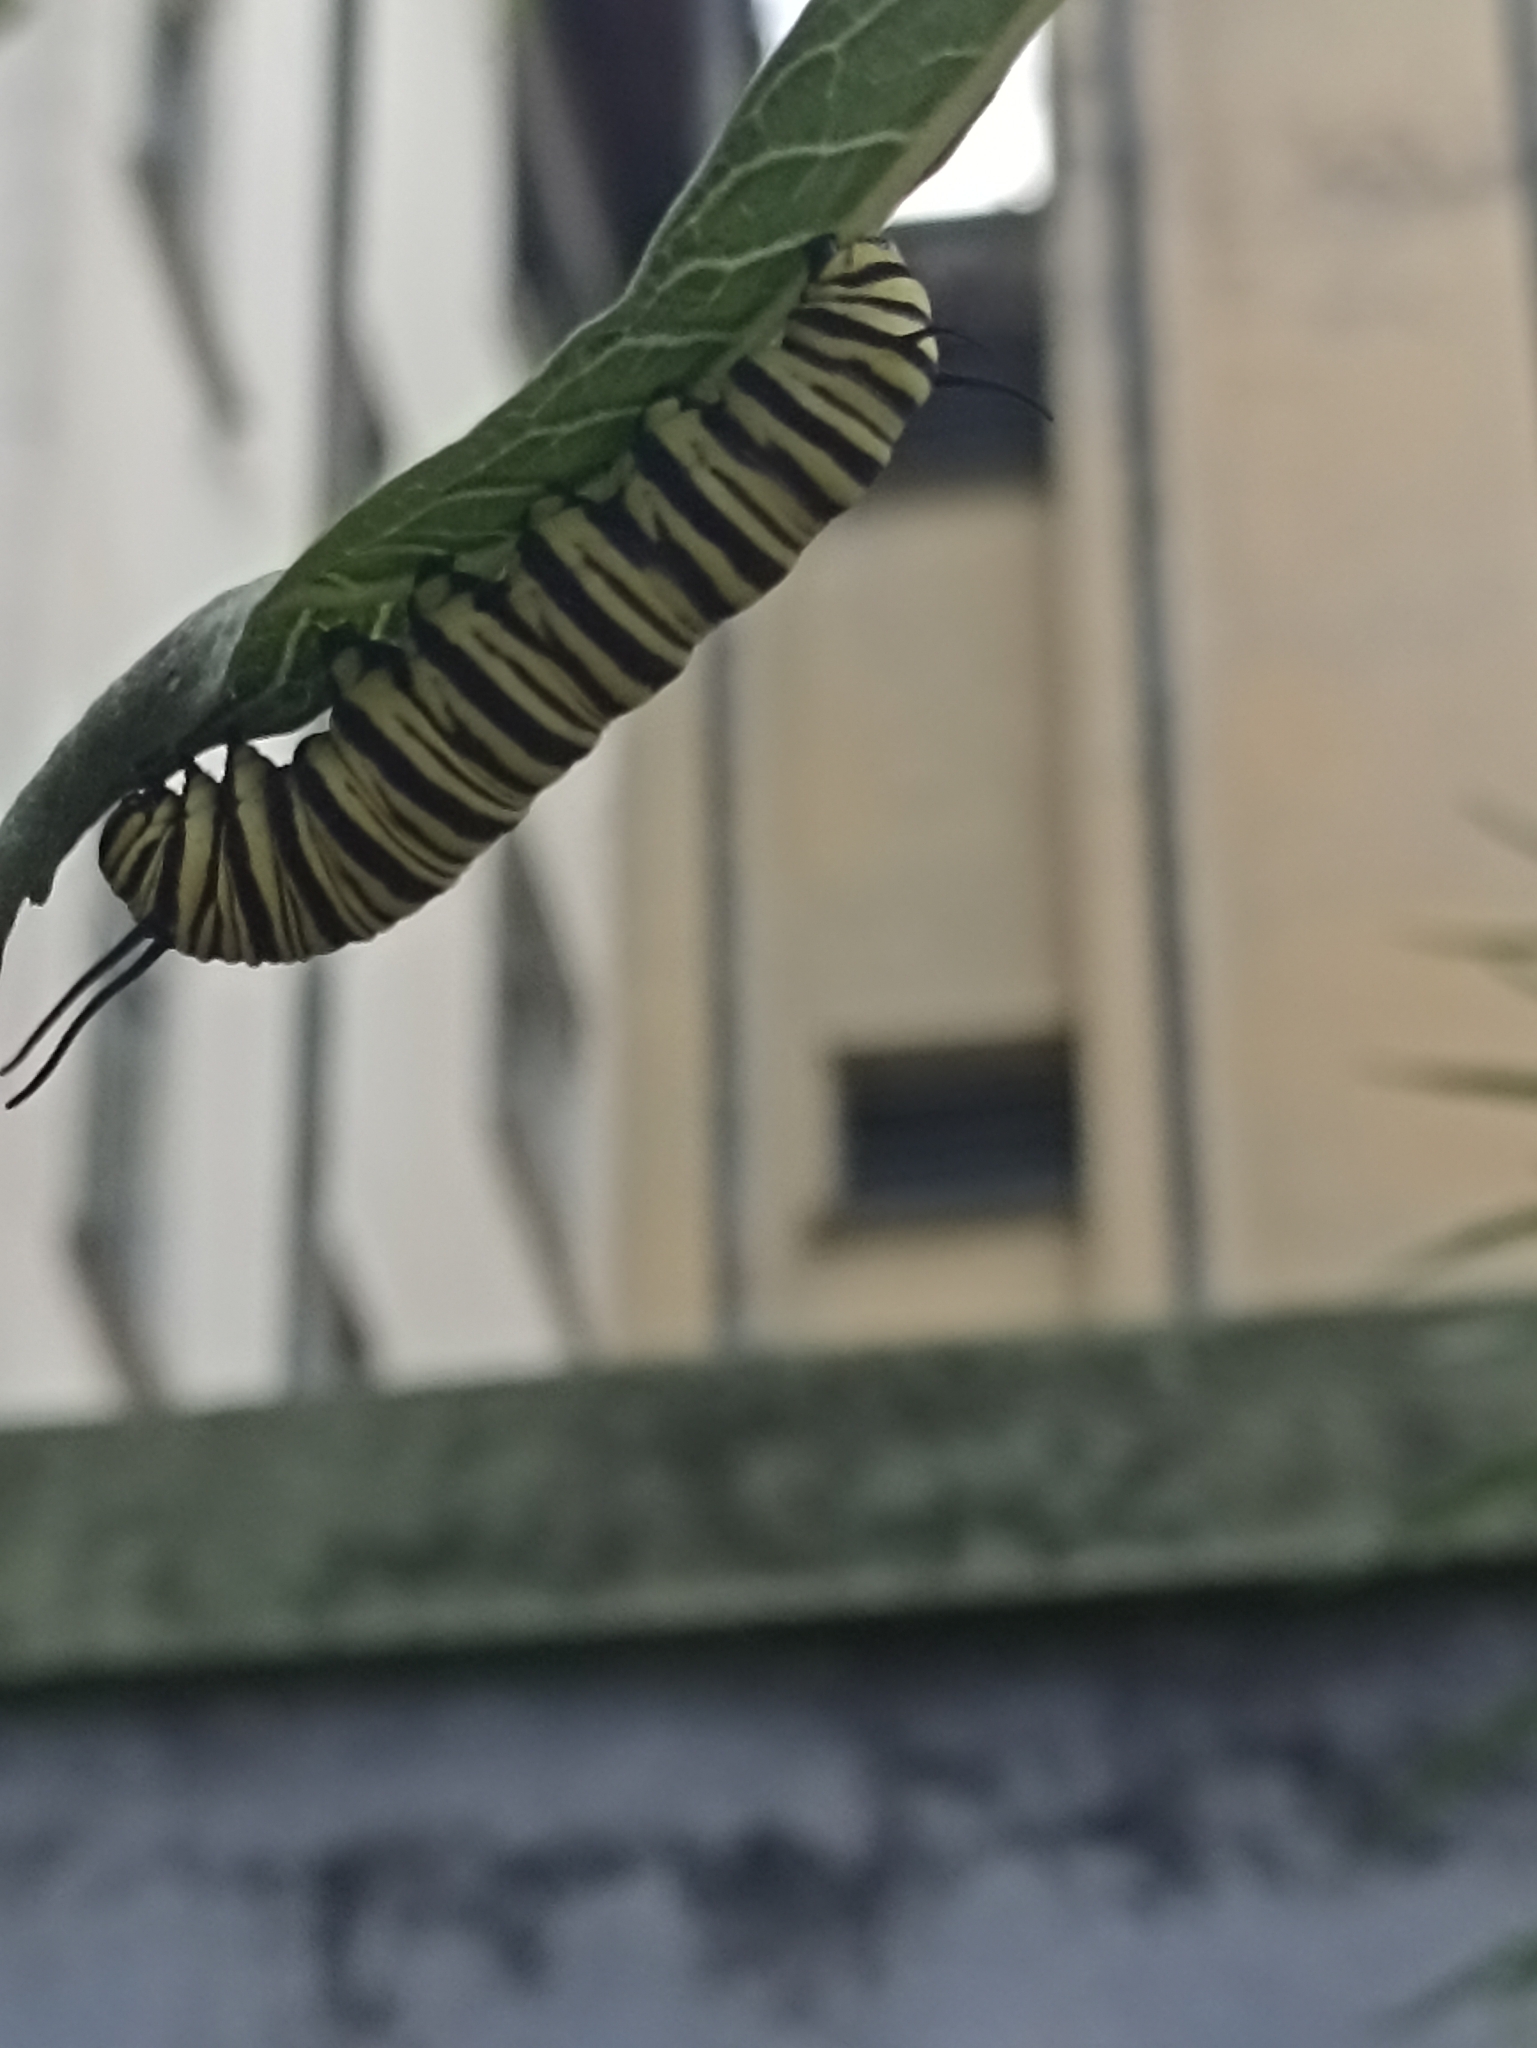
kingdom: Animalia
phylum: Arthropoda
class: Insecta
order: Lepidoptera
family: Nymphalidae
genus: Danaus
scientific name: Danaus erippus
